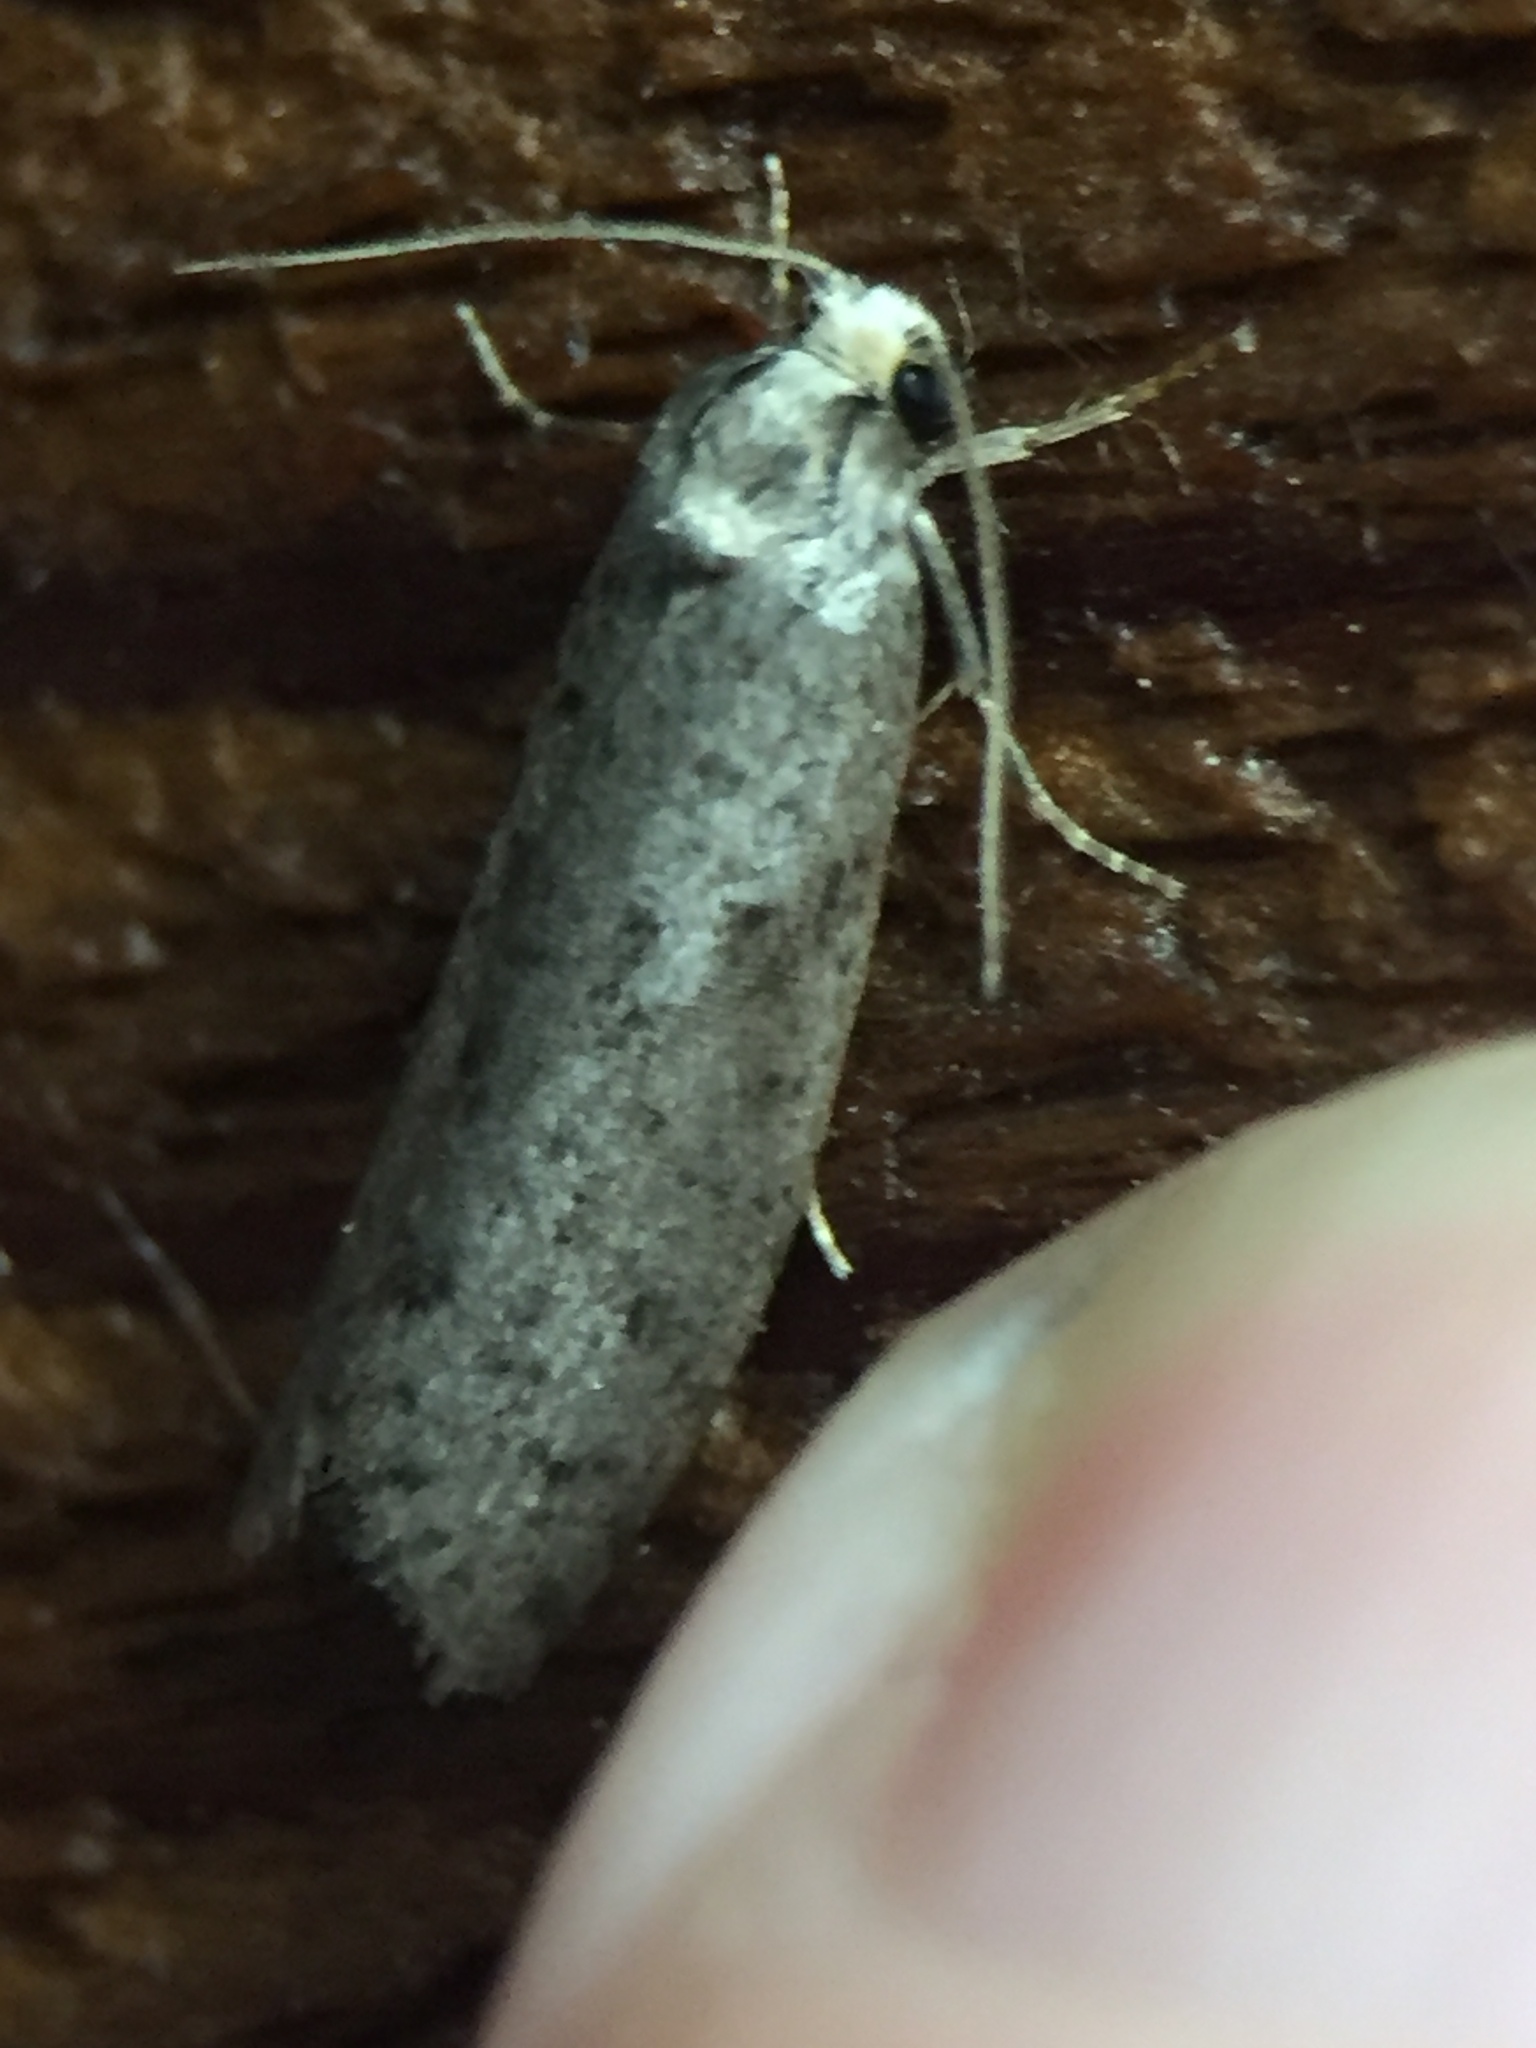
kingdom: Animalia
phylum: Arthropoda
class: Insecta
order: Lepidoptera
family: Psychidae
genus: Lepidoscia
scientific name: Lepidoscia protorna
